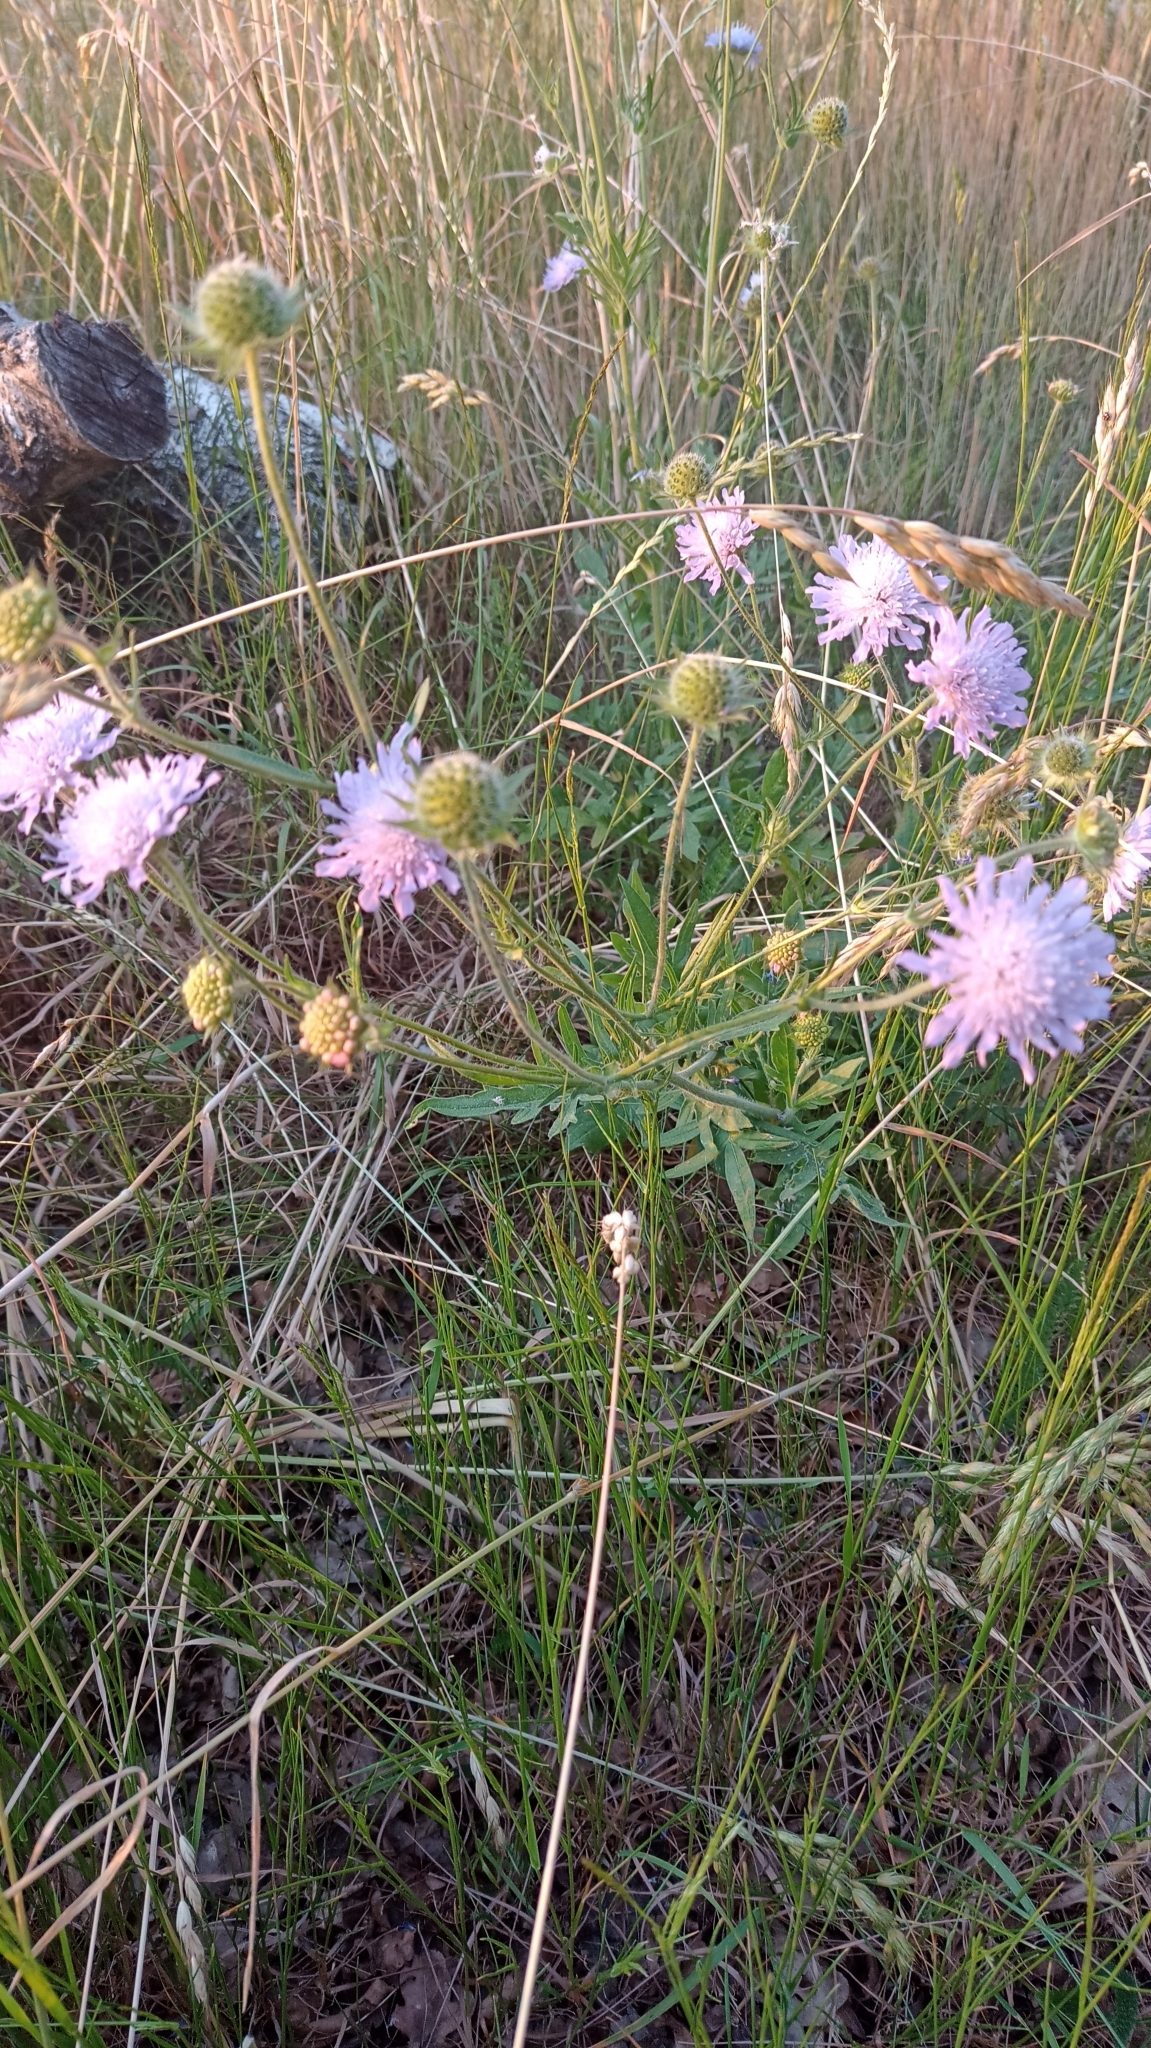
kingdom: Plantae
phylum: Tracheophyta
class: Magnoliopsida
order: Dipsacales
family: Caprifoliaceae
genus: Knautia
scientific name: Knautia arvensis
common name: Field scabiosa
